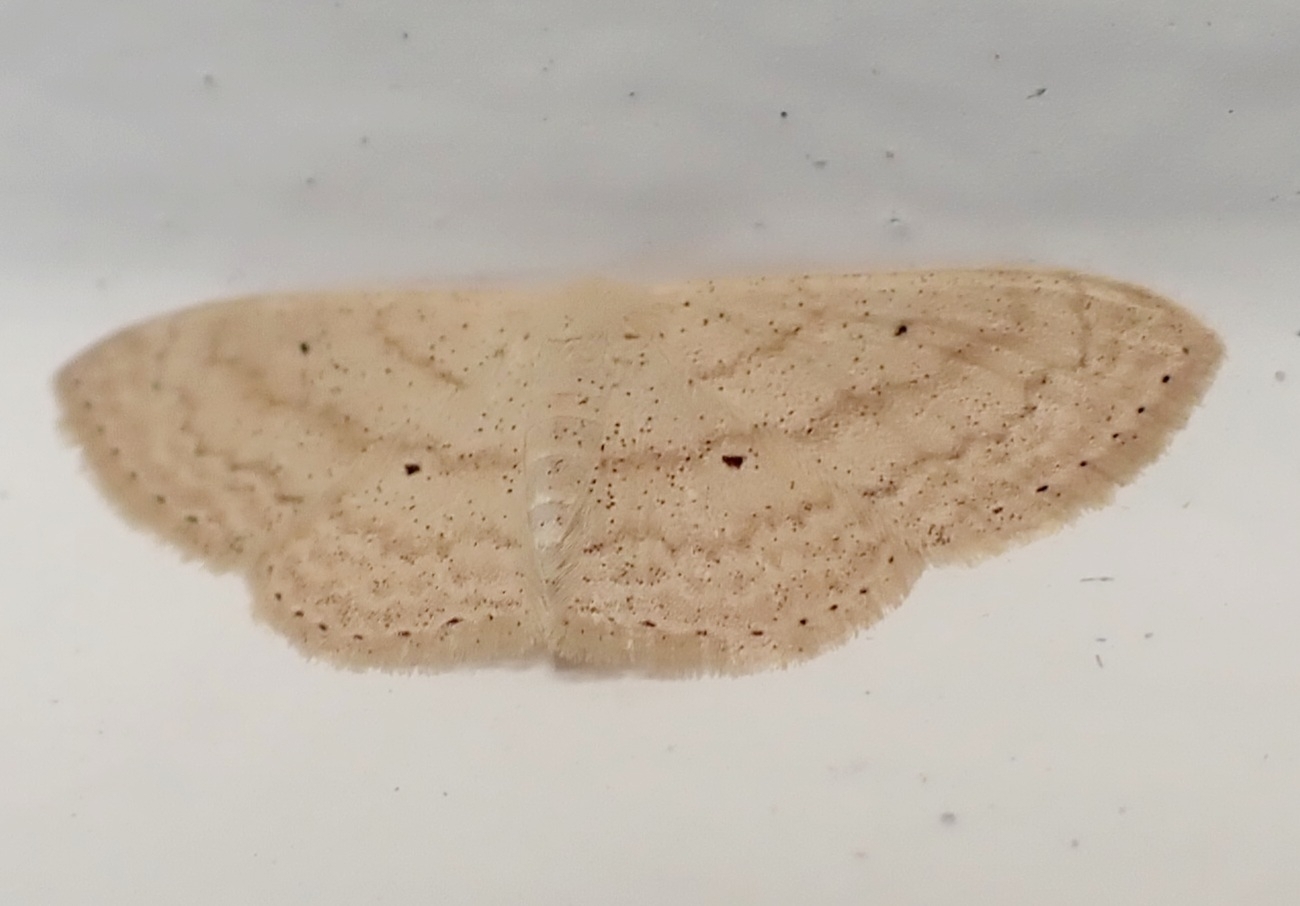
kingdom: Animalia
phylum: Arthropoda
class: Insecta
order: Lepidoptera
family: Geometridae
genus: Scopula
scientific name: Scopula minorata
